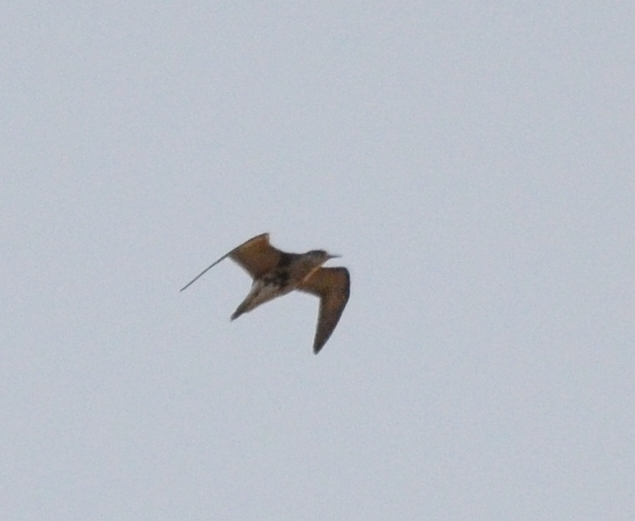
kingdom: Animalia
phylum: Chordata
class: Aves
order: Charadriiformes
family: Scolopacidae
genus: Calidris
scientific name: Calidris pugnax
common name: Ruff
